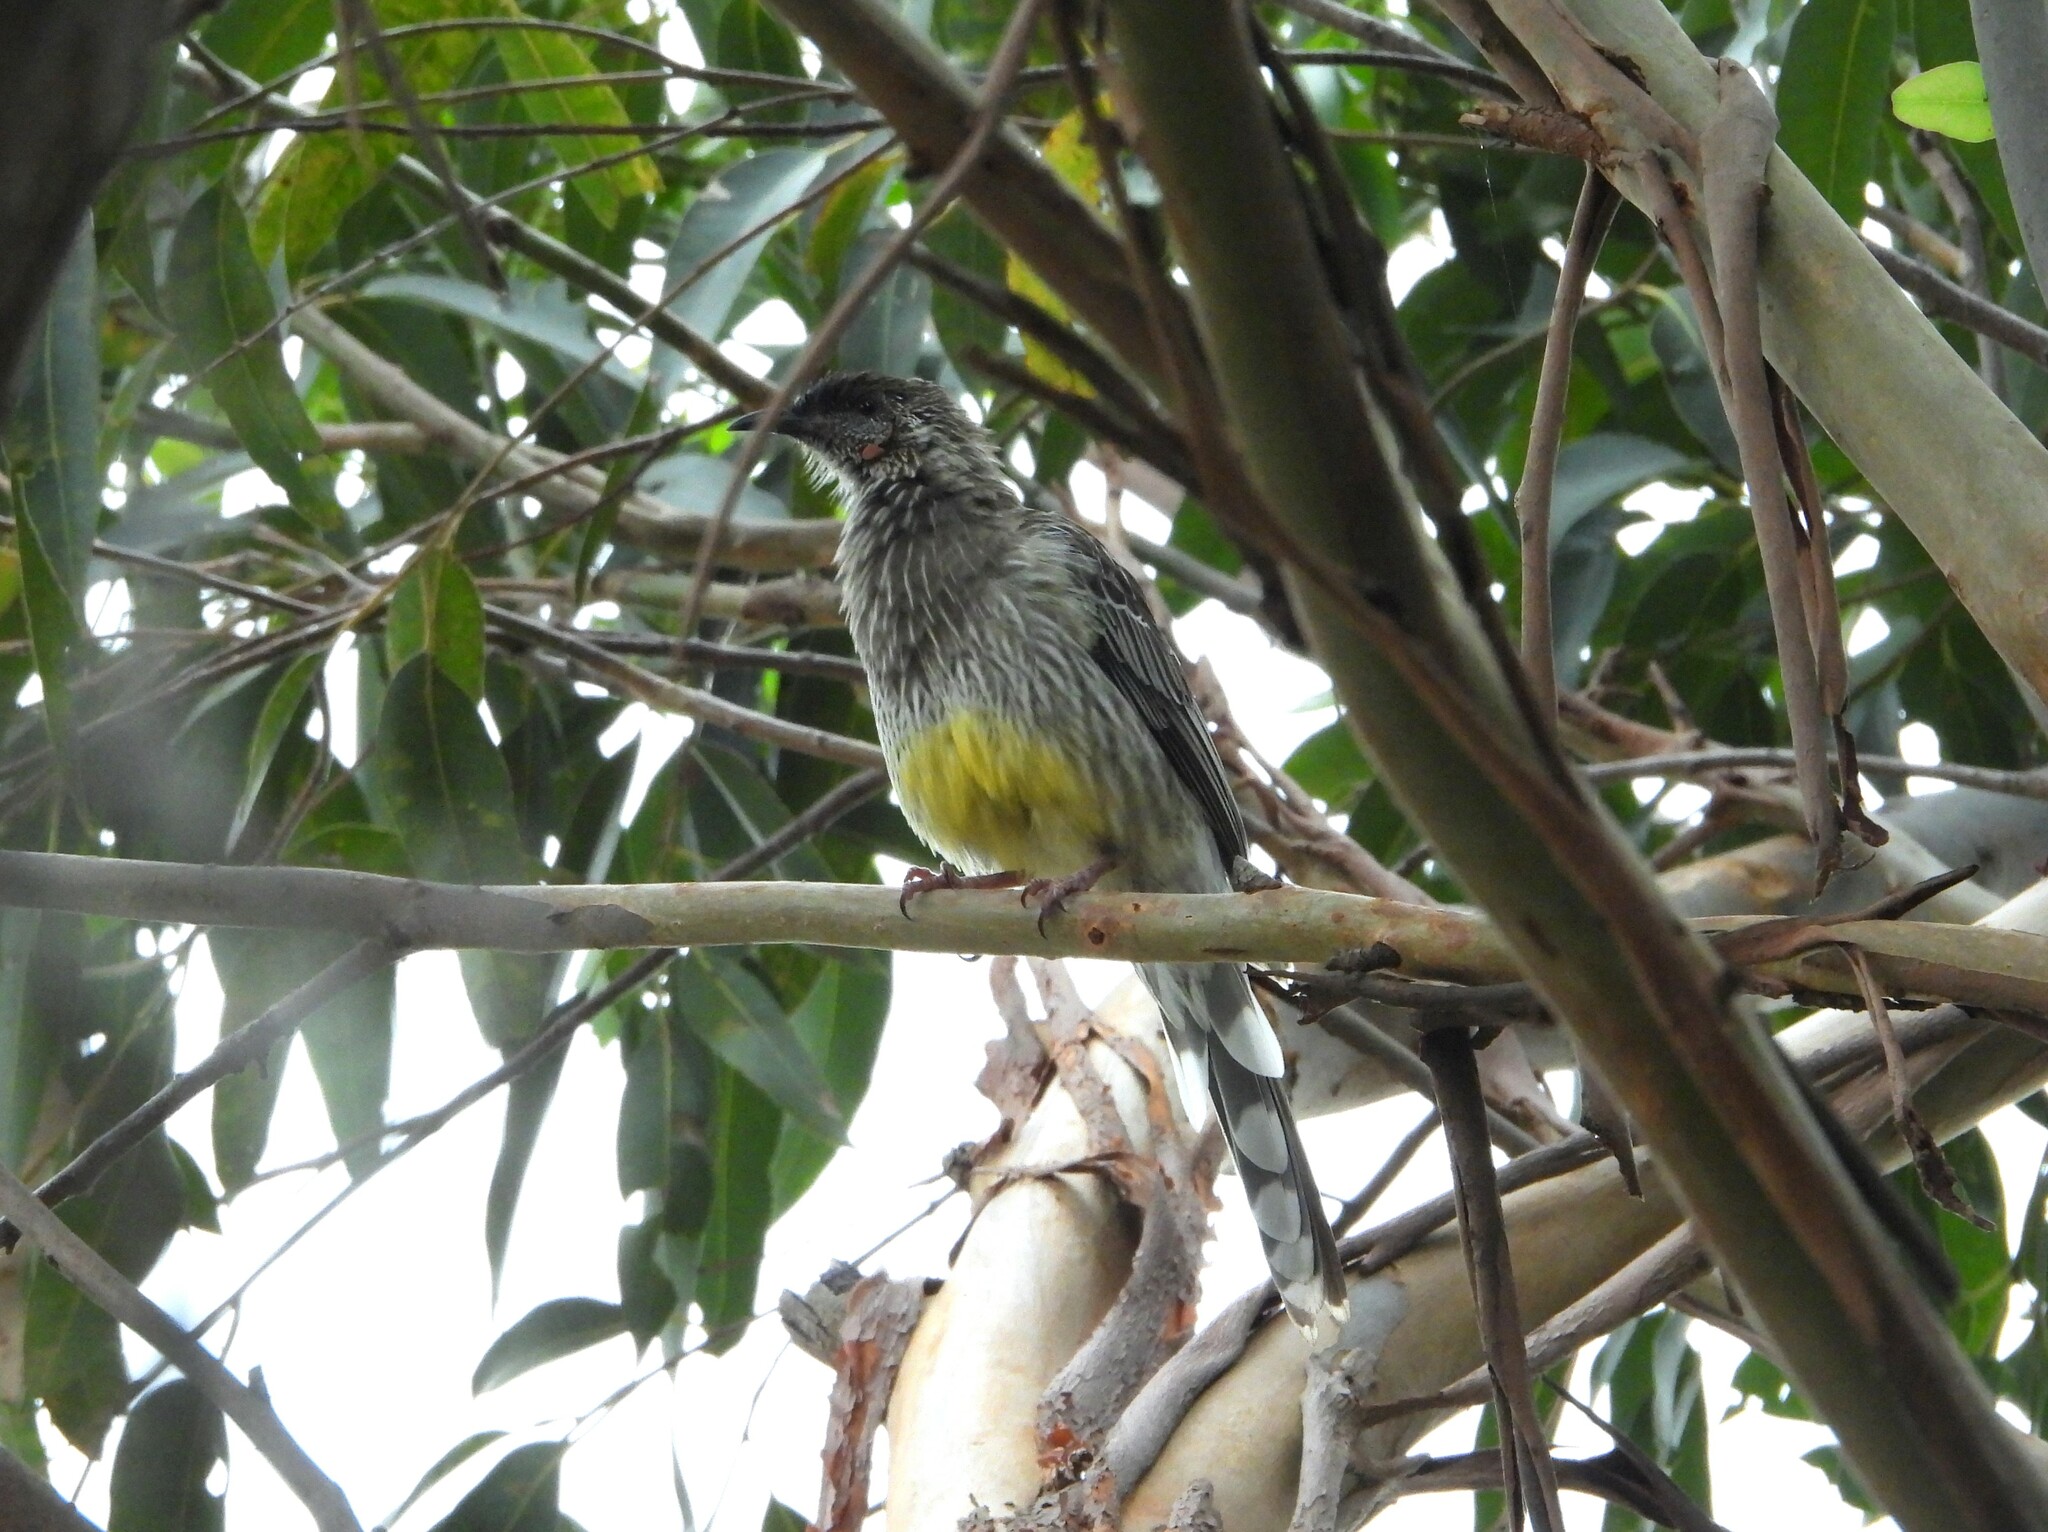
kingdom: Animalia
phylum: Chordata
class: Aves
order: Passeriformes
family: Meliphagidae
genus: Anthochaera
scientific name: Anthochaera carunculata
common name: Red wattlebird
